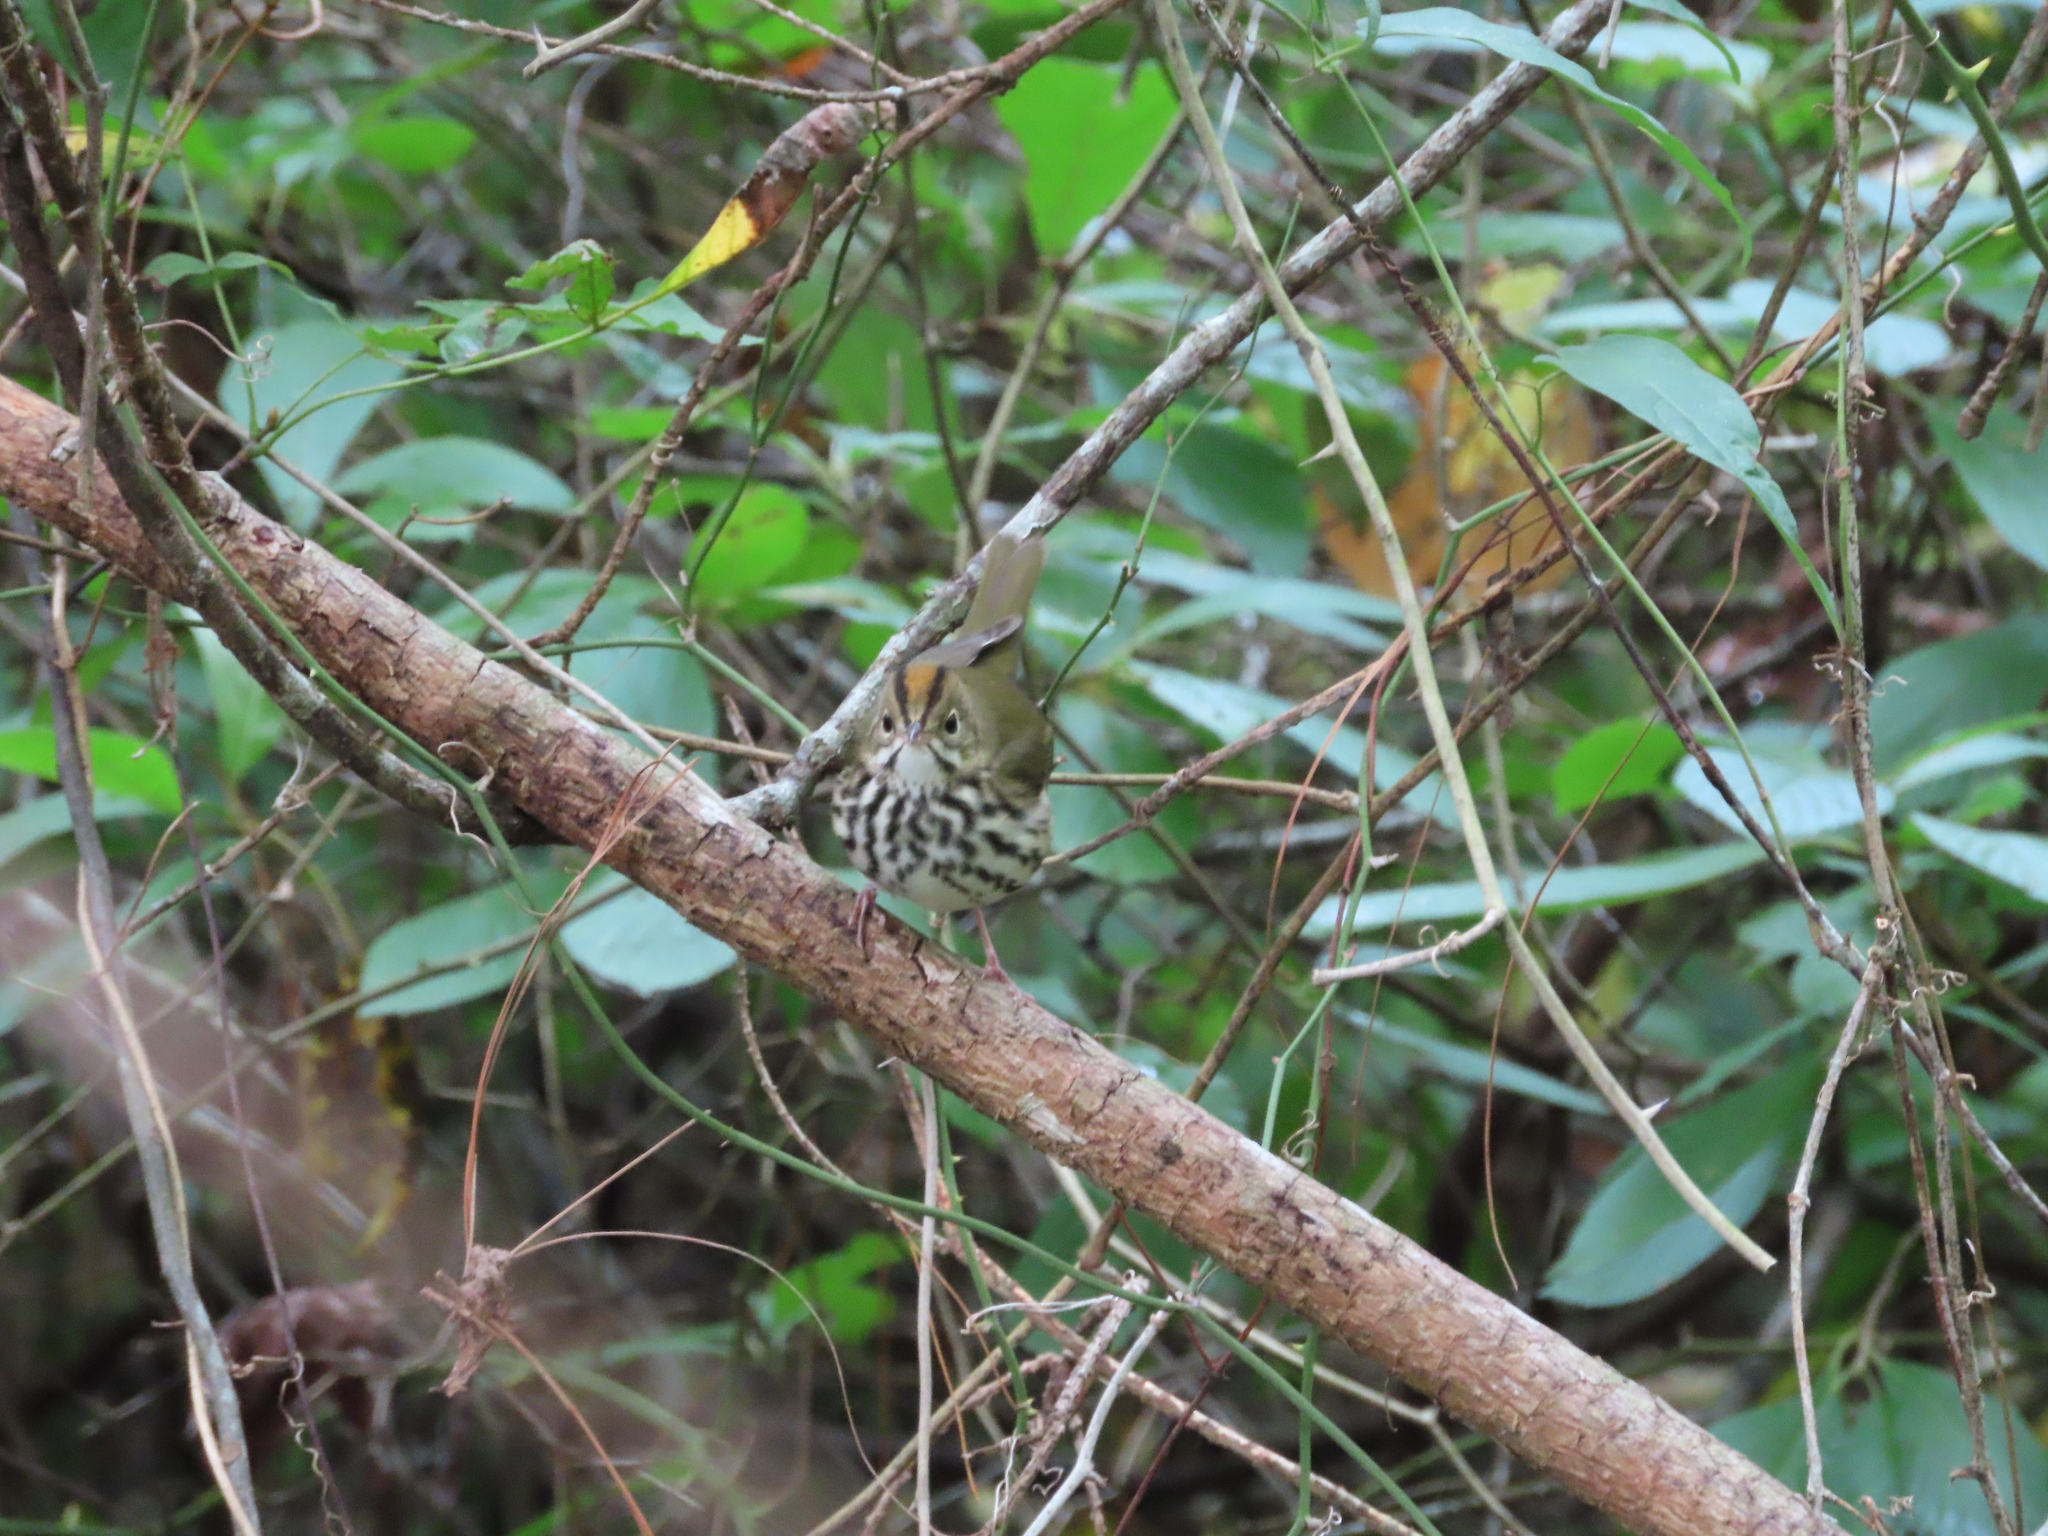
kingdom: Animalia
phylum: Chordata
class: Aves
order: Passeriformes
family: Parulidae
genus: Seiurus
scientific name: Seiurus aurocapilla
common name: Ovenbird
